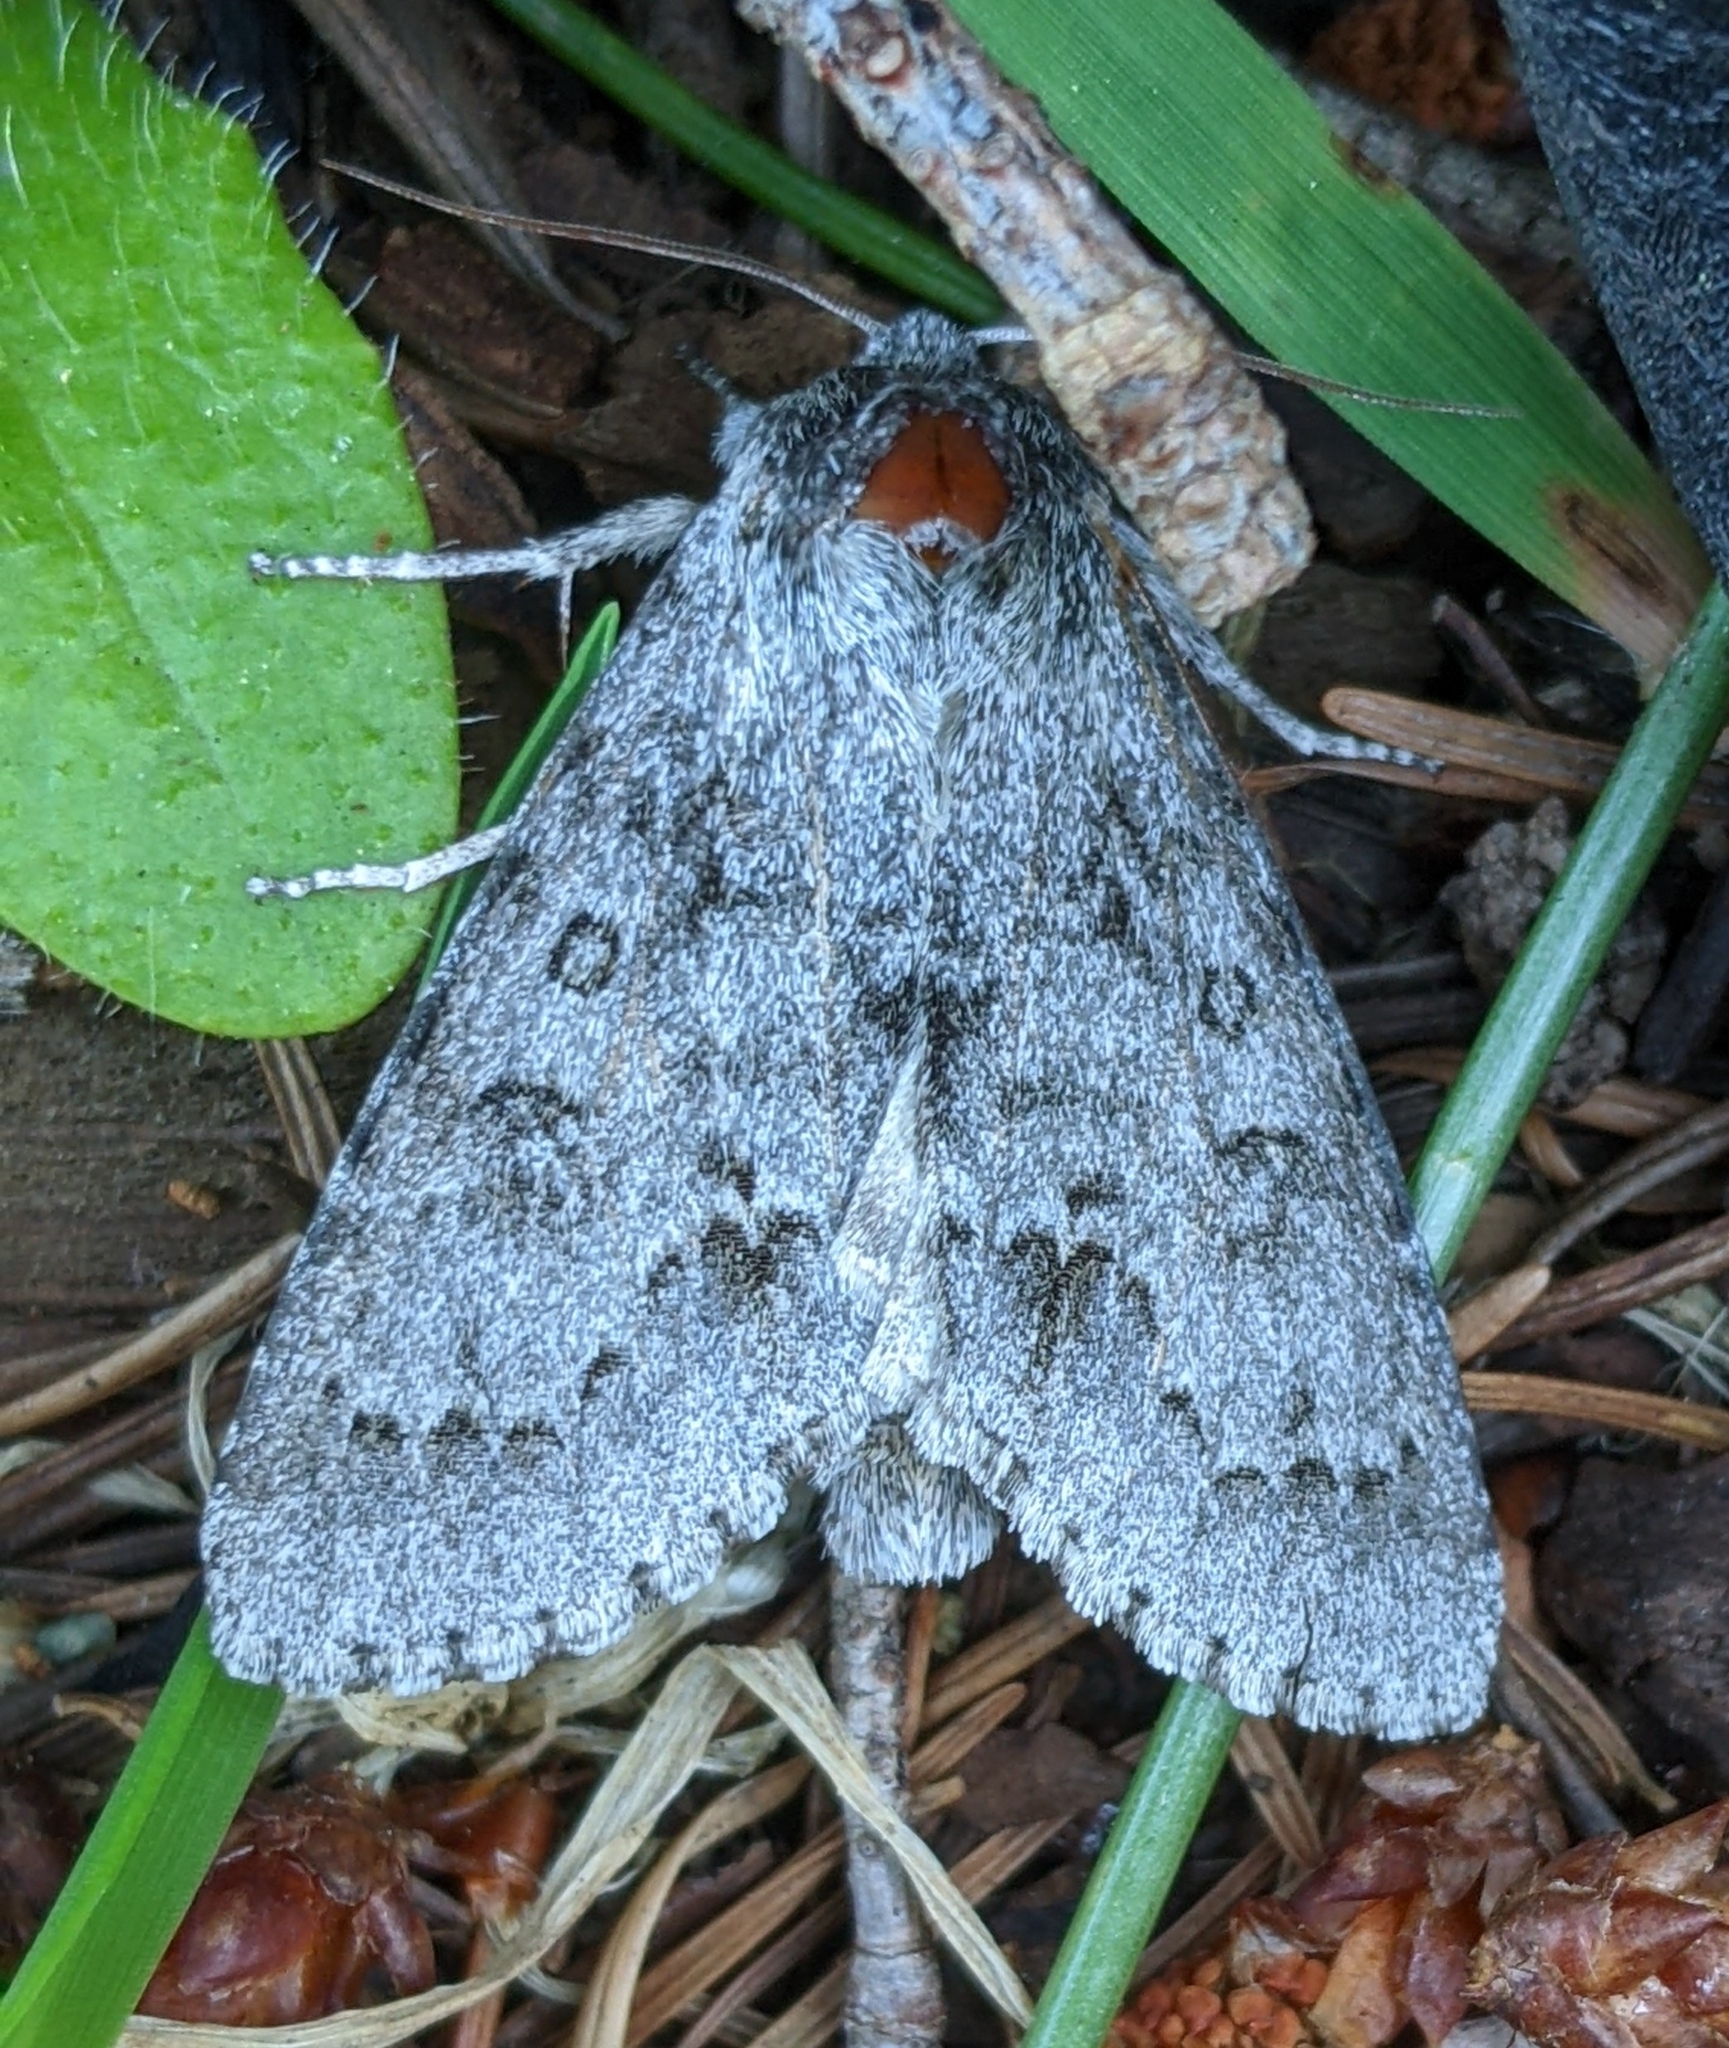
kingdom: Animalia
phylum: Arthropoda
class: Insecta
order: Lepidoptera
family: Noctuidae
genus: Acronicta
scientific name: Acronicta insita
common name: Large gray dagger
